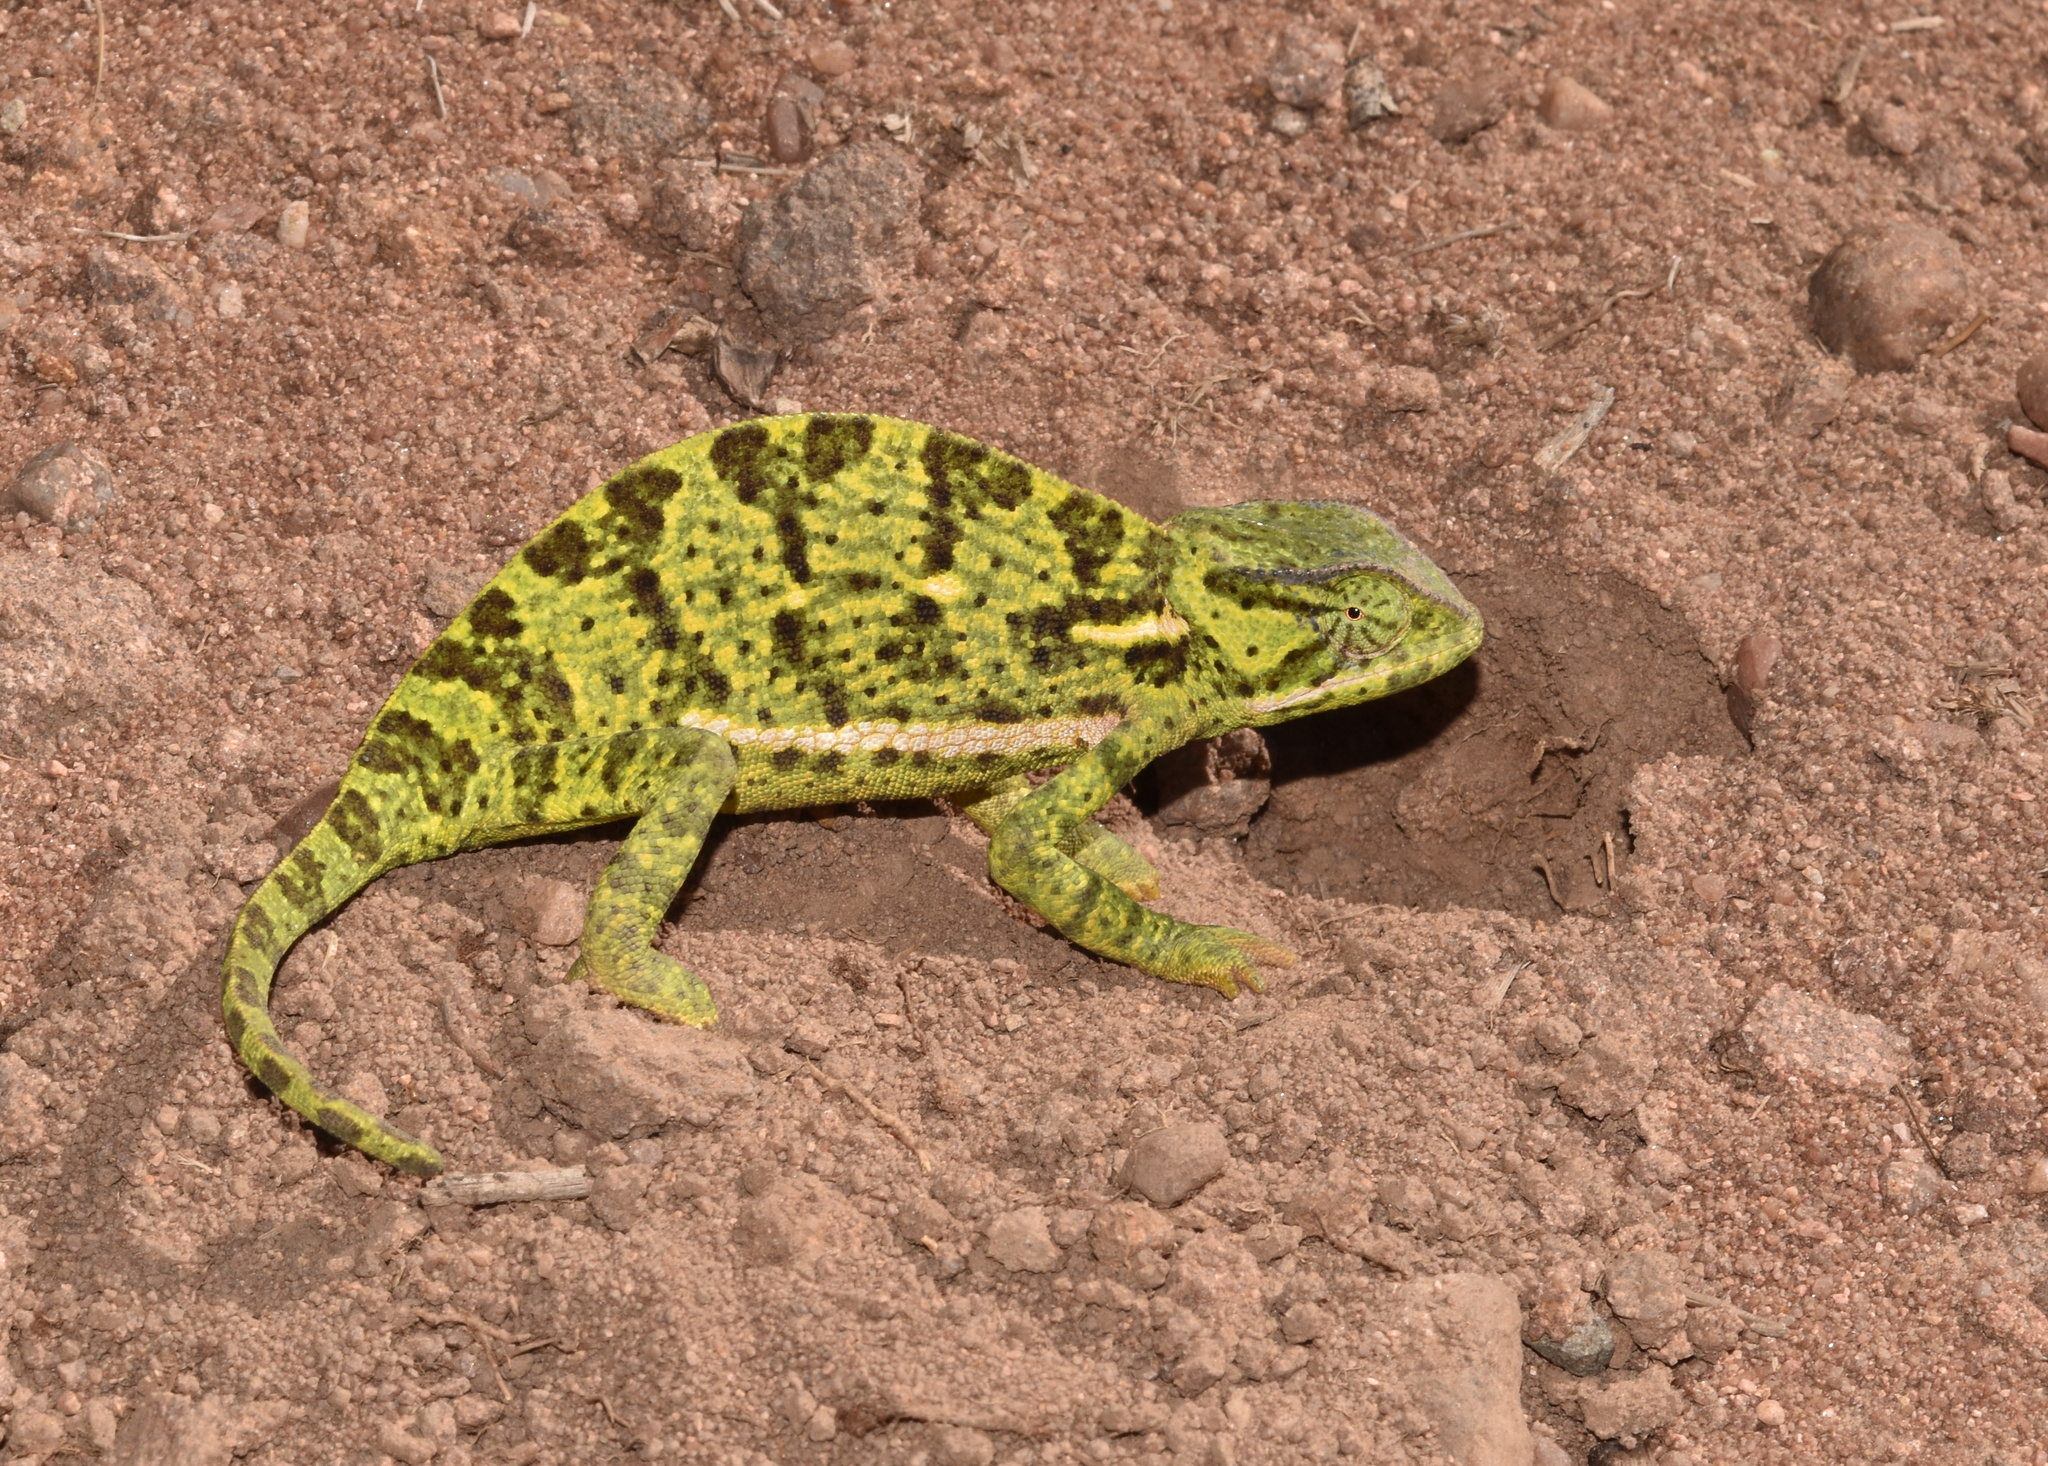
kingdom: Animalia
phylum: Chordata
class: Squamata
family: Chamaeleonidae
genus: Chamaeleo
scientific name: Chamaeleo dilepis
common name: Flapneck chameleon
